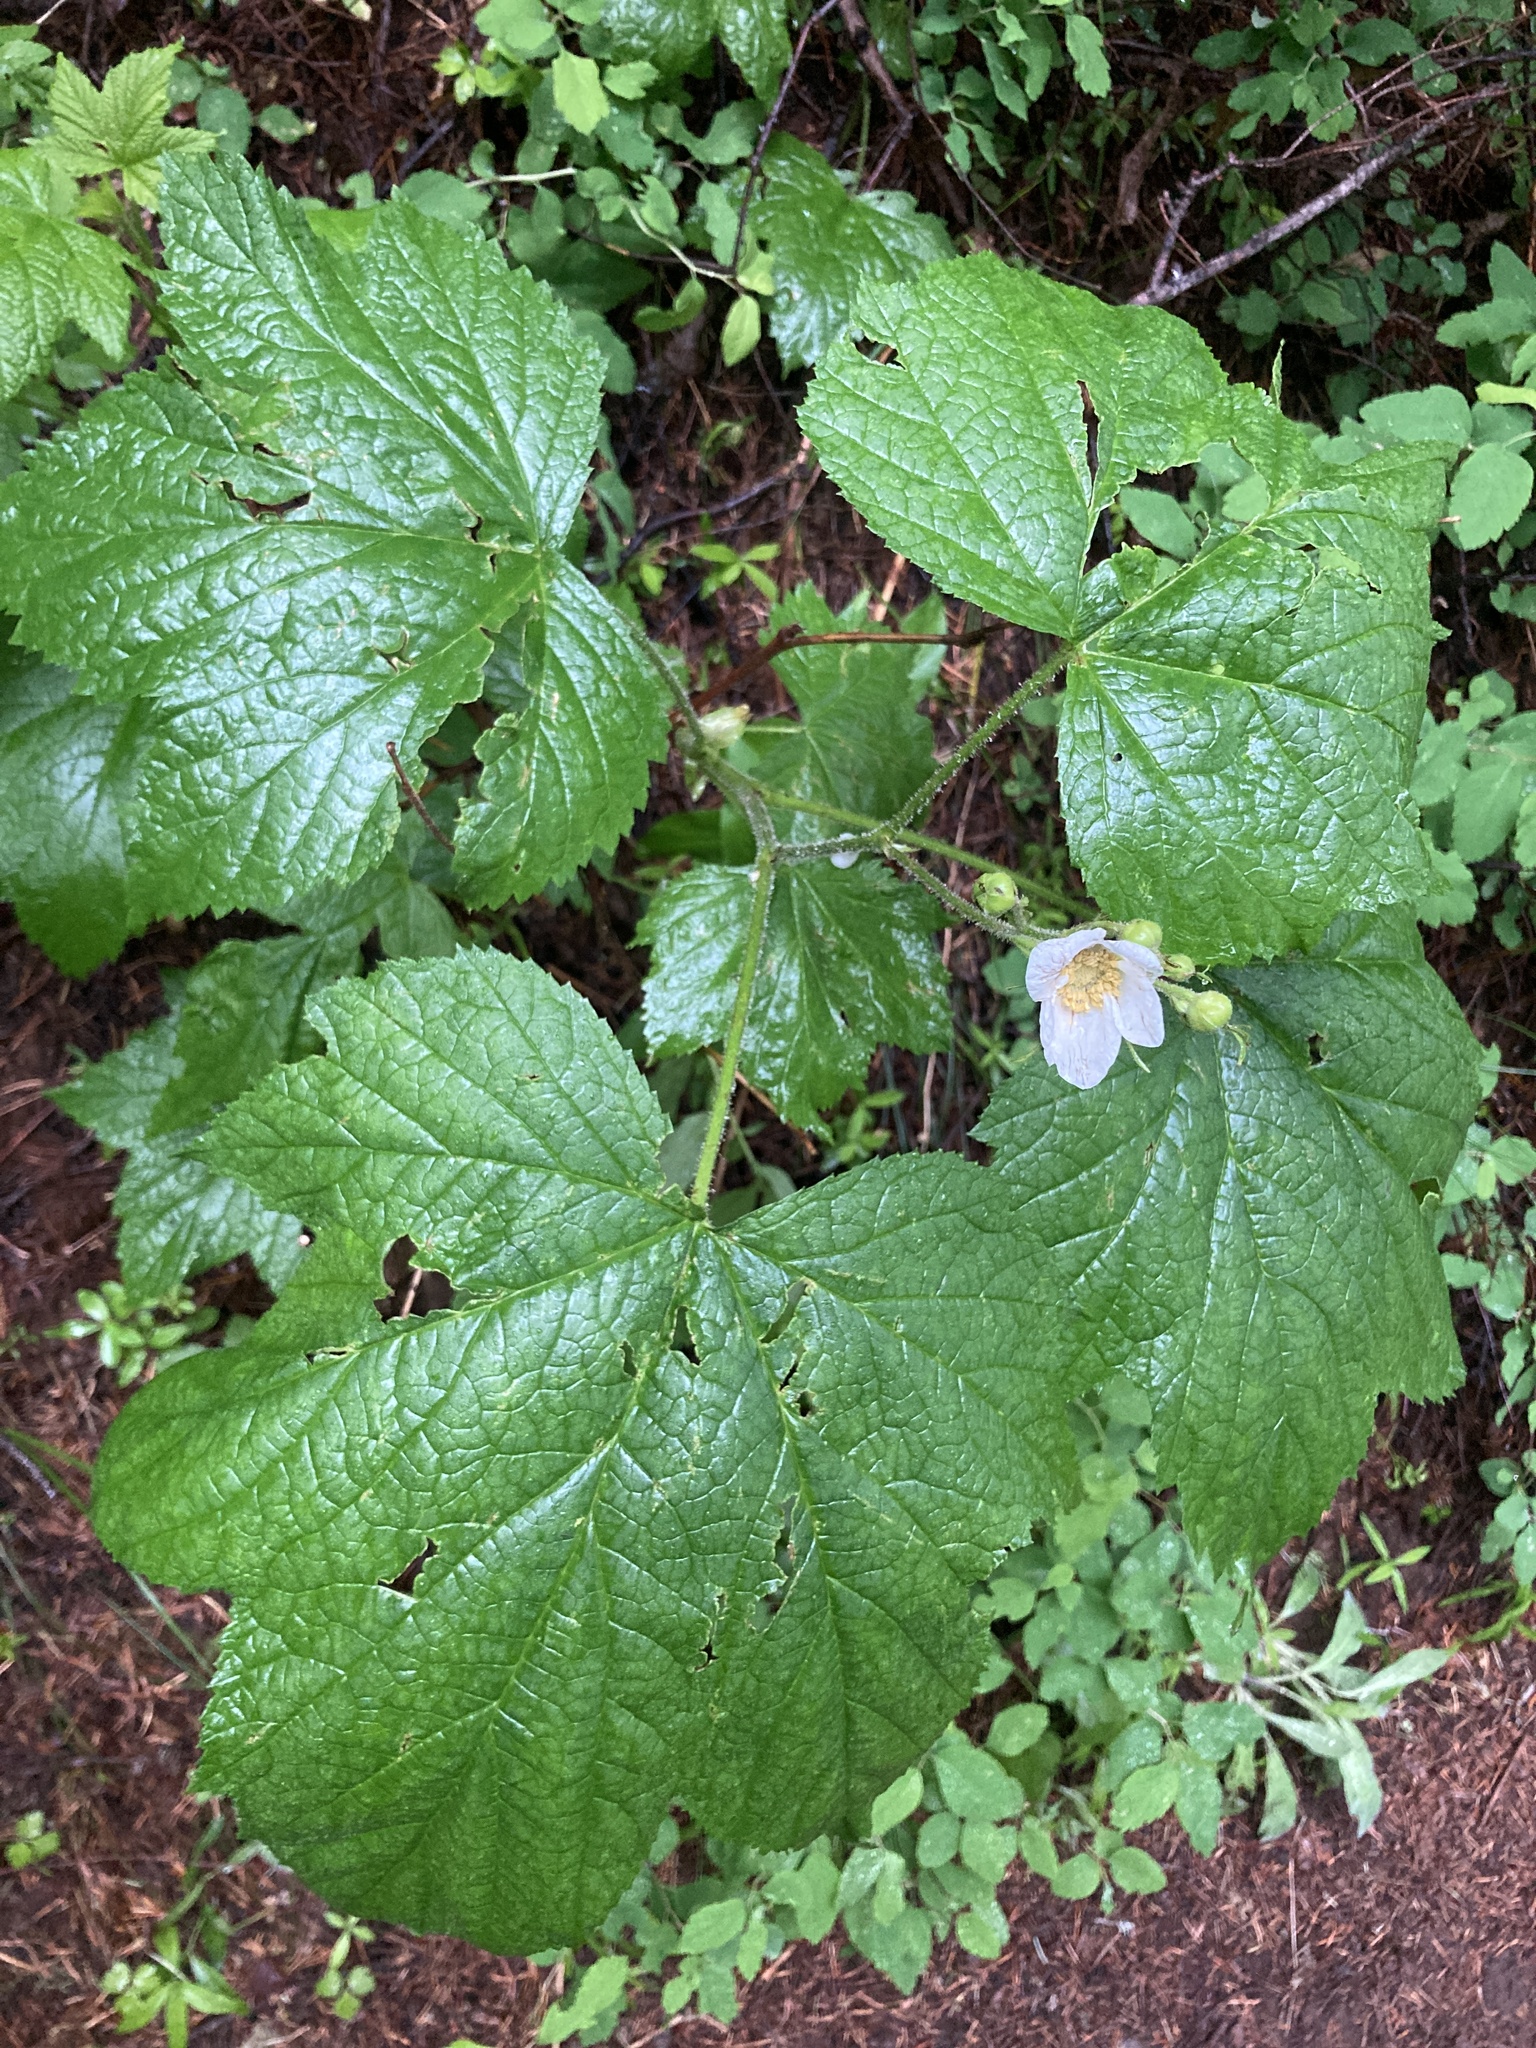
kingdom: Plantae
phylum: Tracheophyta
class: Magnoliopsida
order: Rosales
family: Rosaceae
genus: Rubus
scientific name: Rubus parviflorus
